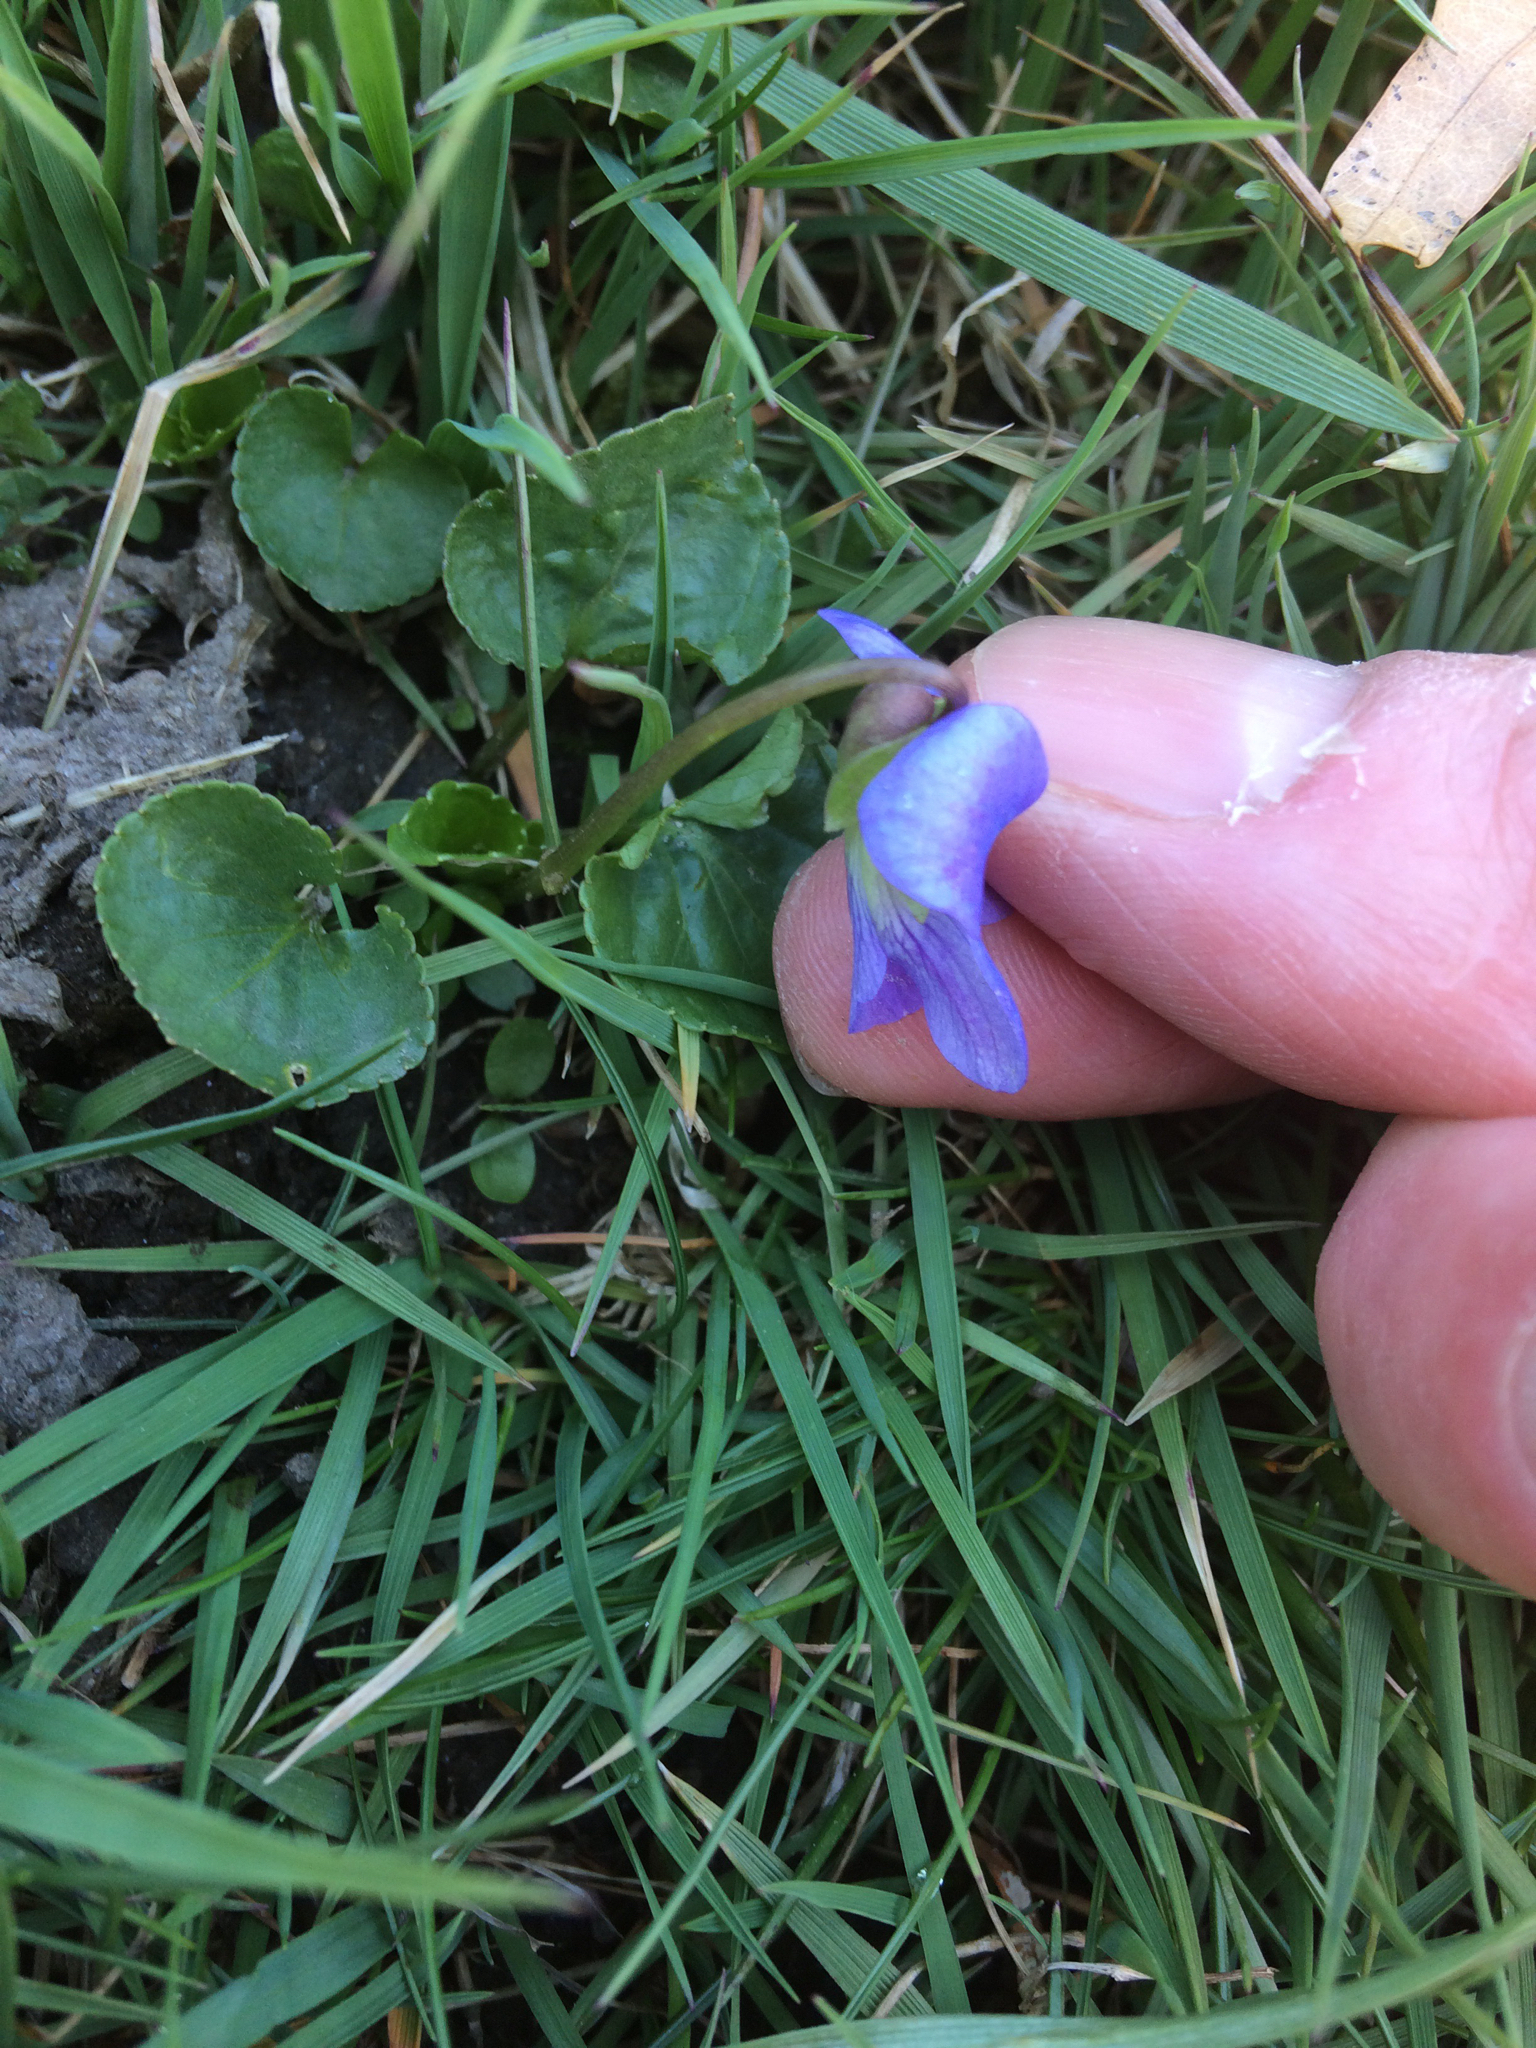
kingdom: Plantae
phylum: Tracheophyta
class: Magnoliopsida
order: Malpighiales
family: Violaceae
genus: Viola
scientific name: Viola sororia
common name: Dooryard violet
